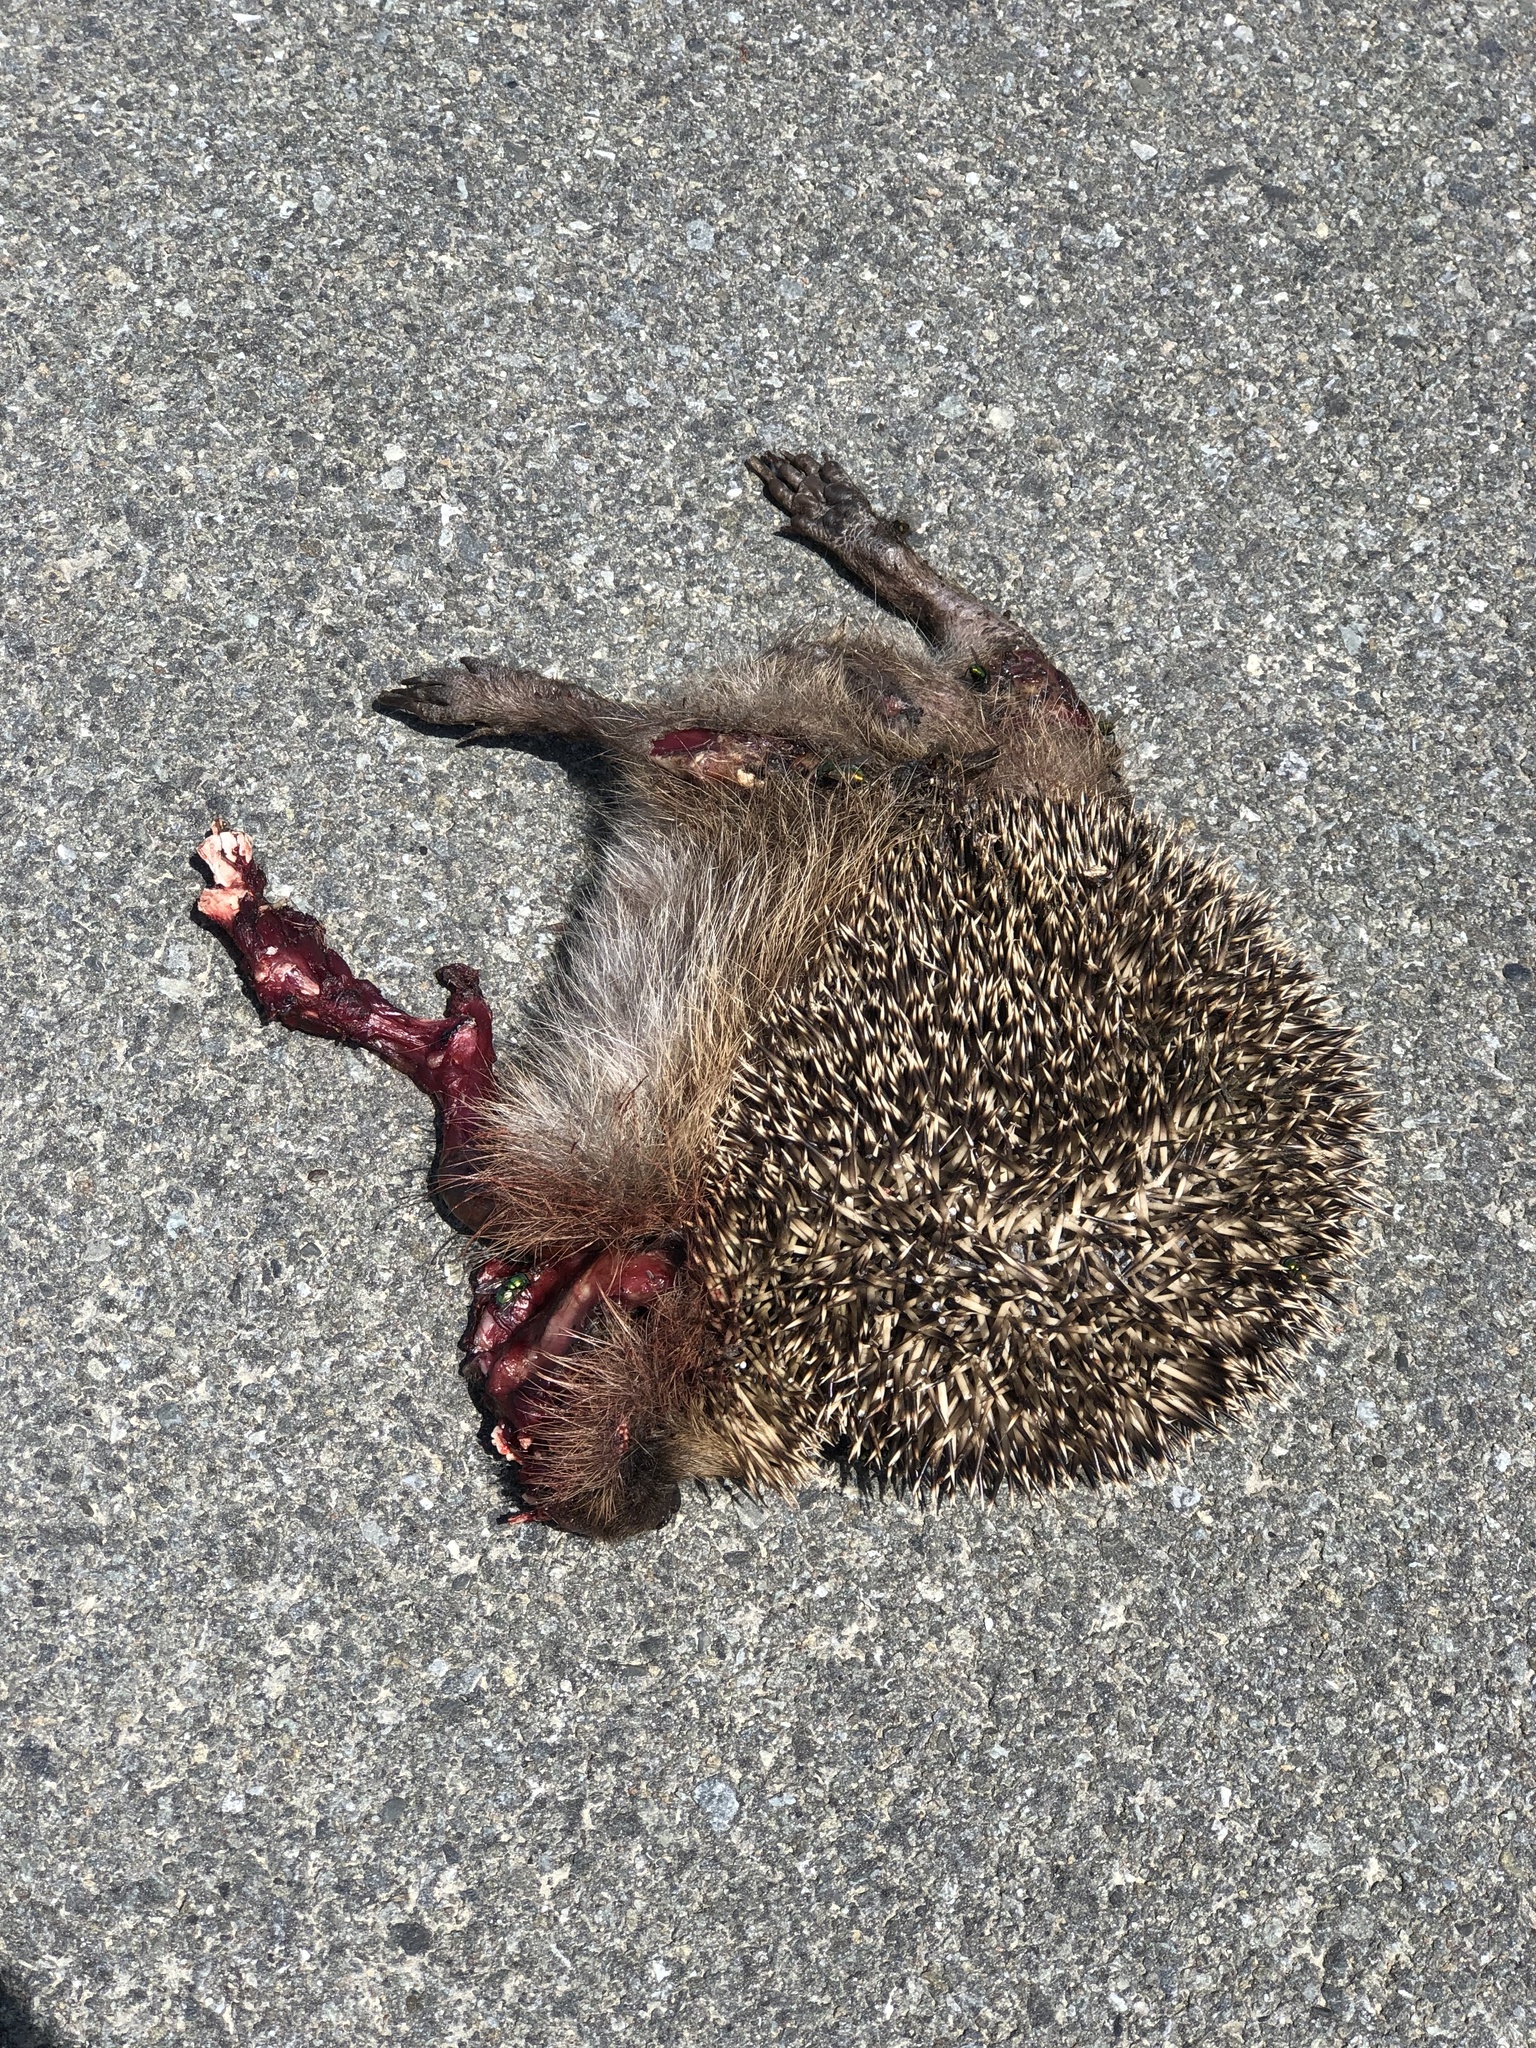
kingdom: Animalia
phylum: Chordata
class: Mammalia
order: Erinaceomorpha
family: Erinaceidae
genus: Erinaceus
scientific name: Erinaceus europaeus
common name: West european hedgehog
